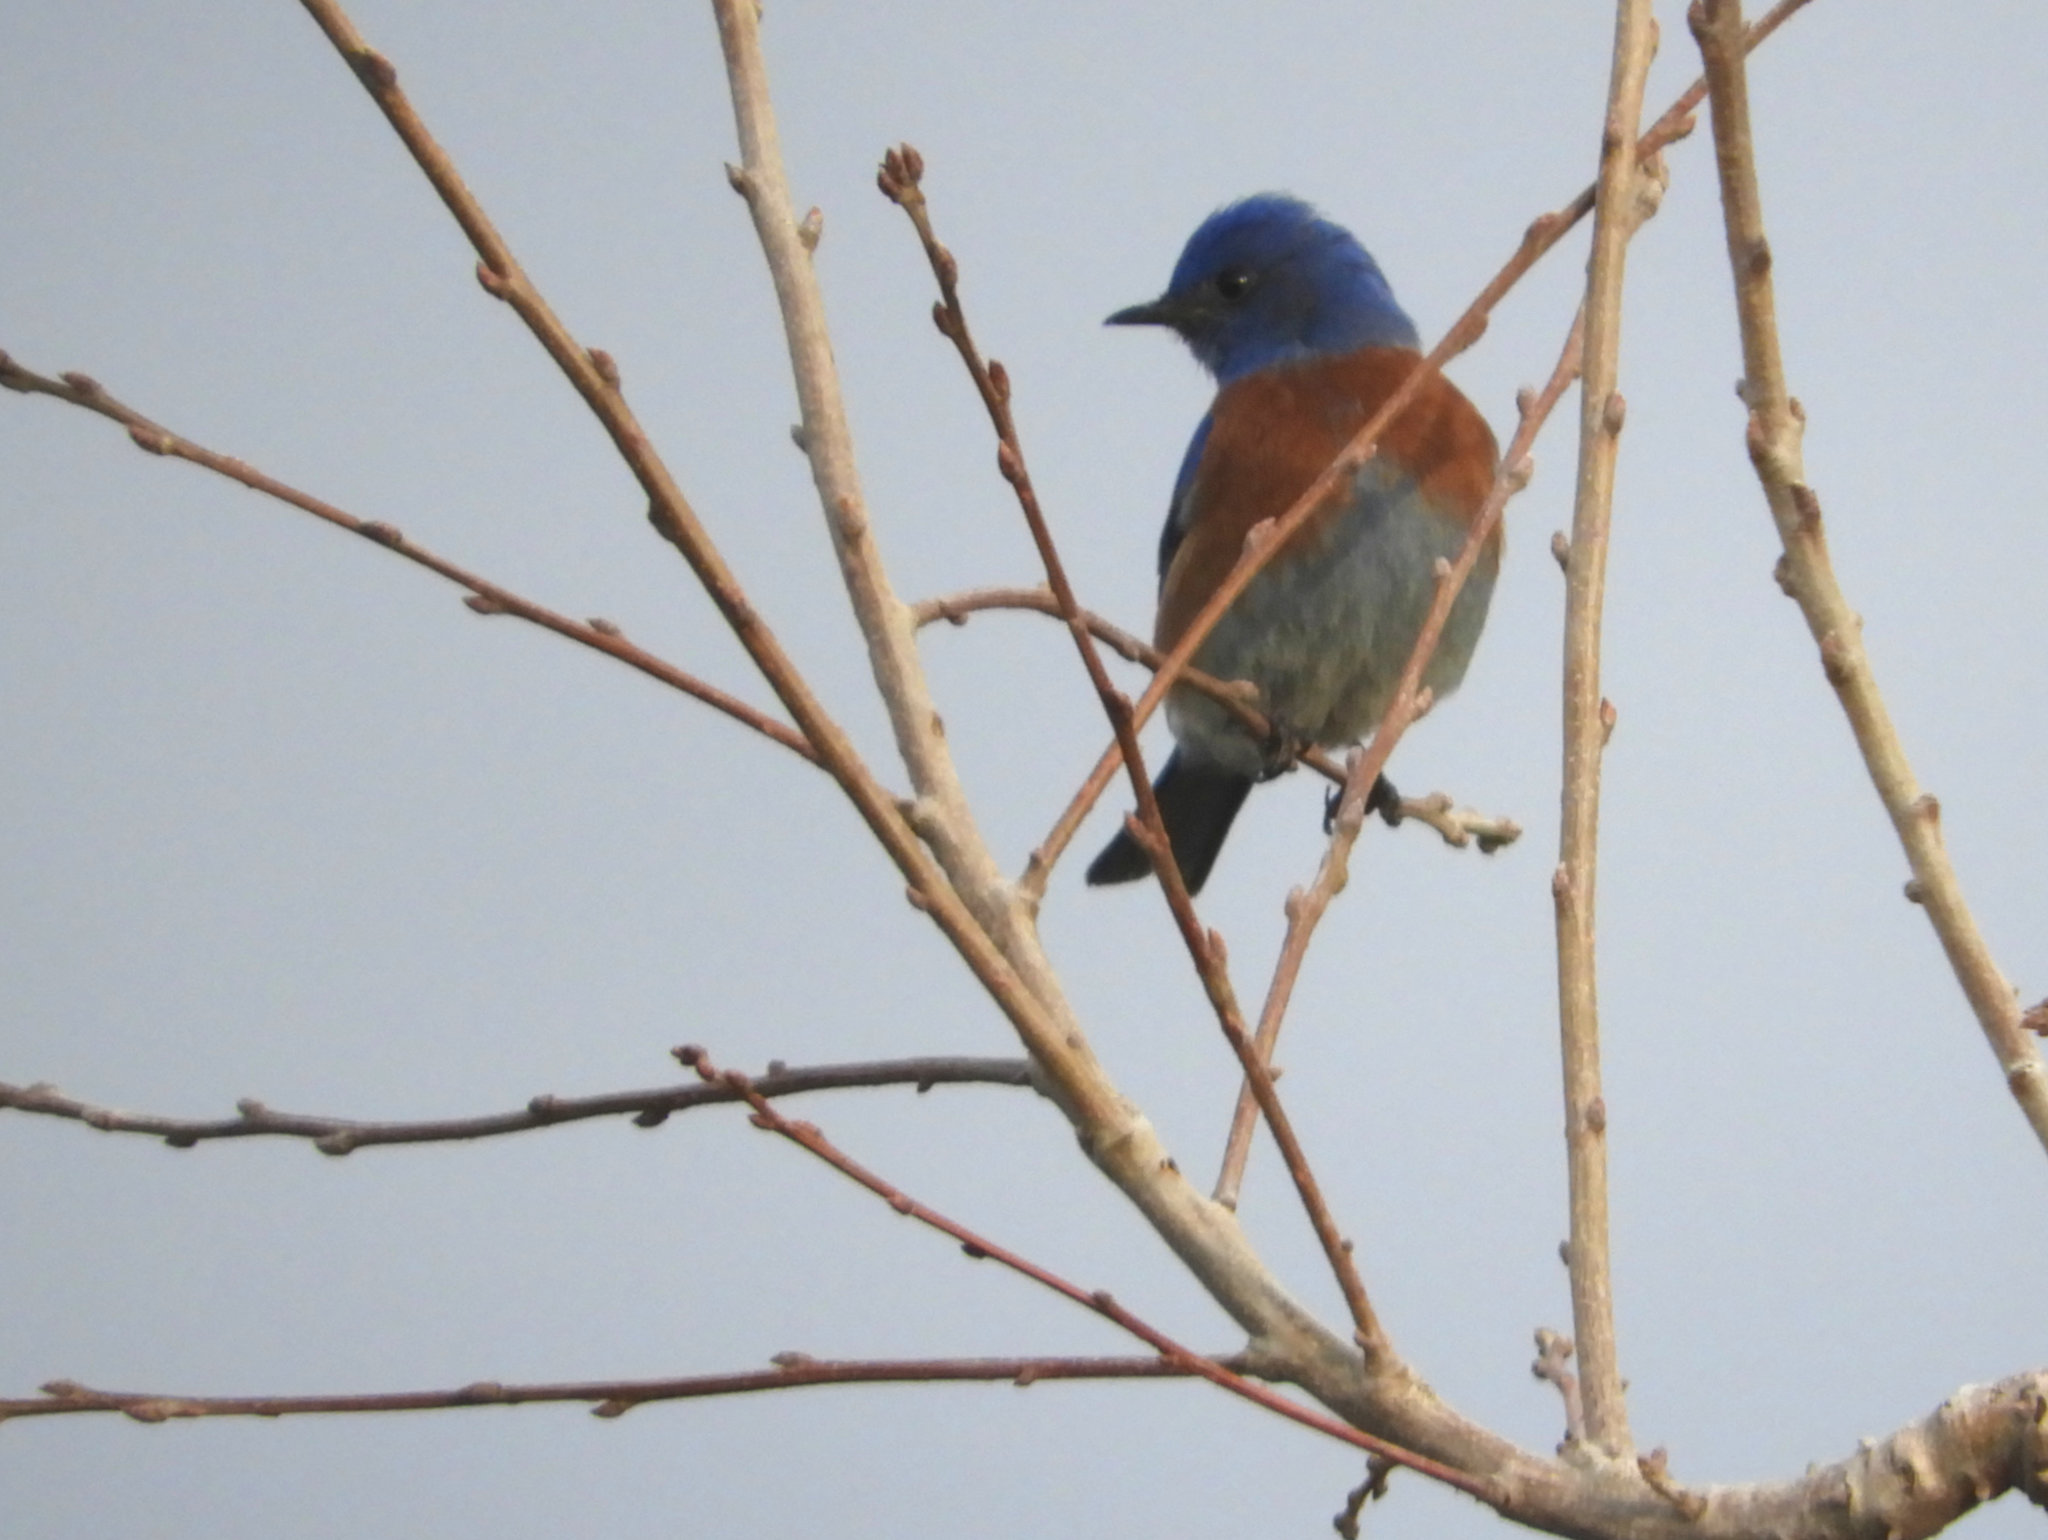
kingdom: Animalia
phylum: Chordata
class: Aves
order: Passeriformes
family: Turdidae
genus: Sialia
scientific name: Sialia mexicana
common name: Western bluebird
